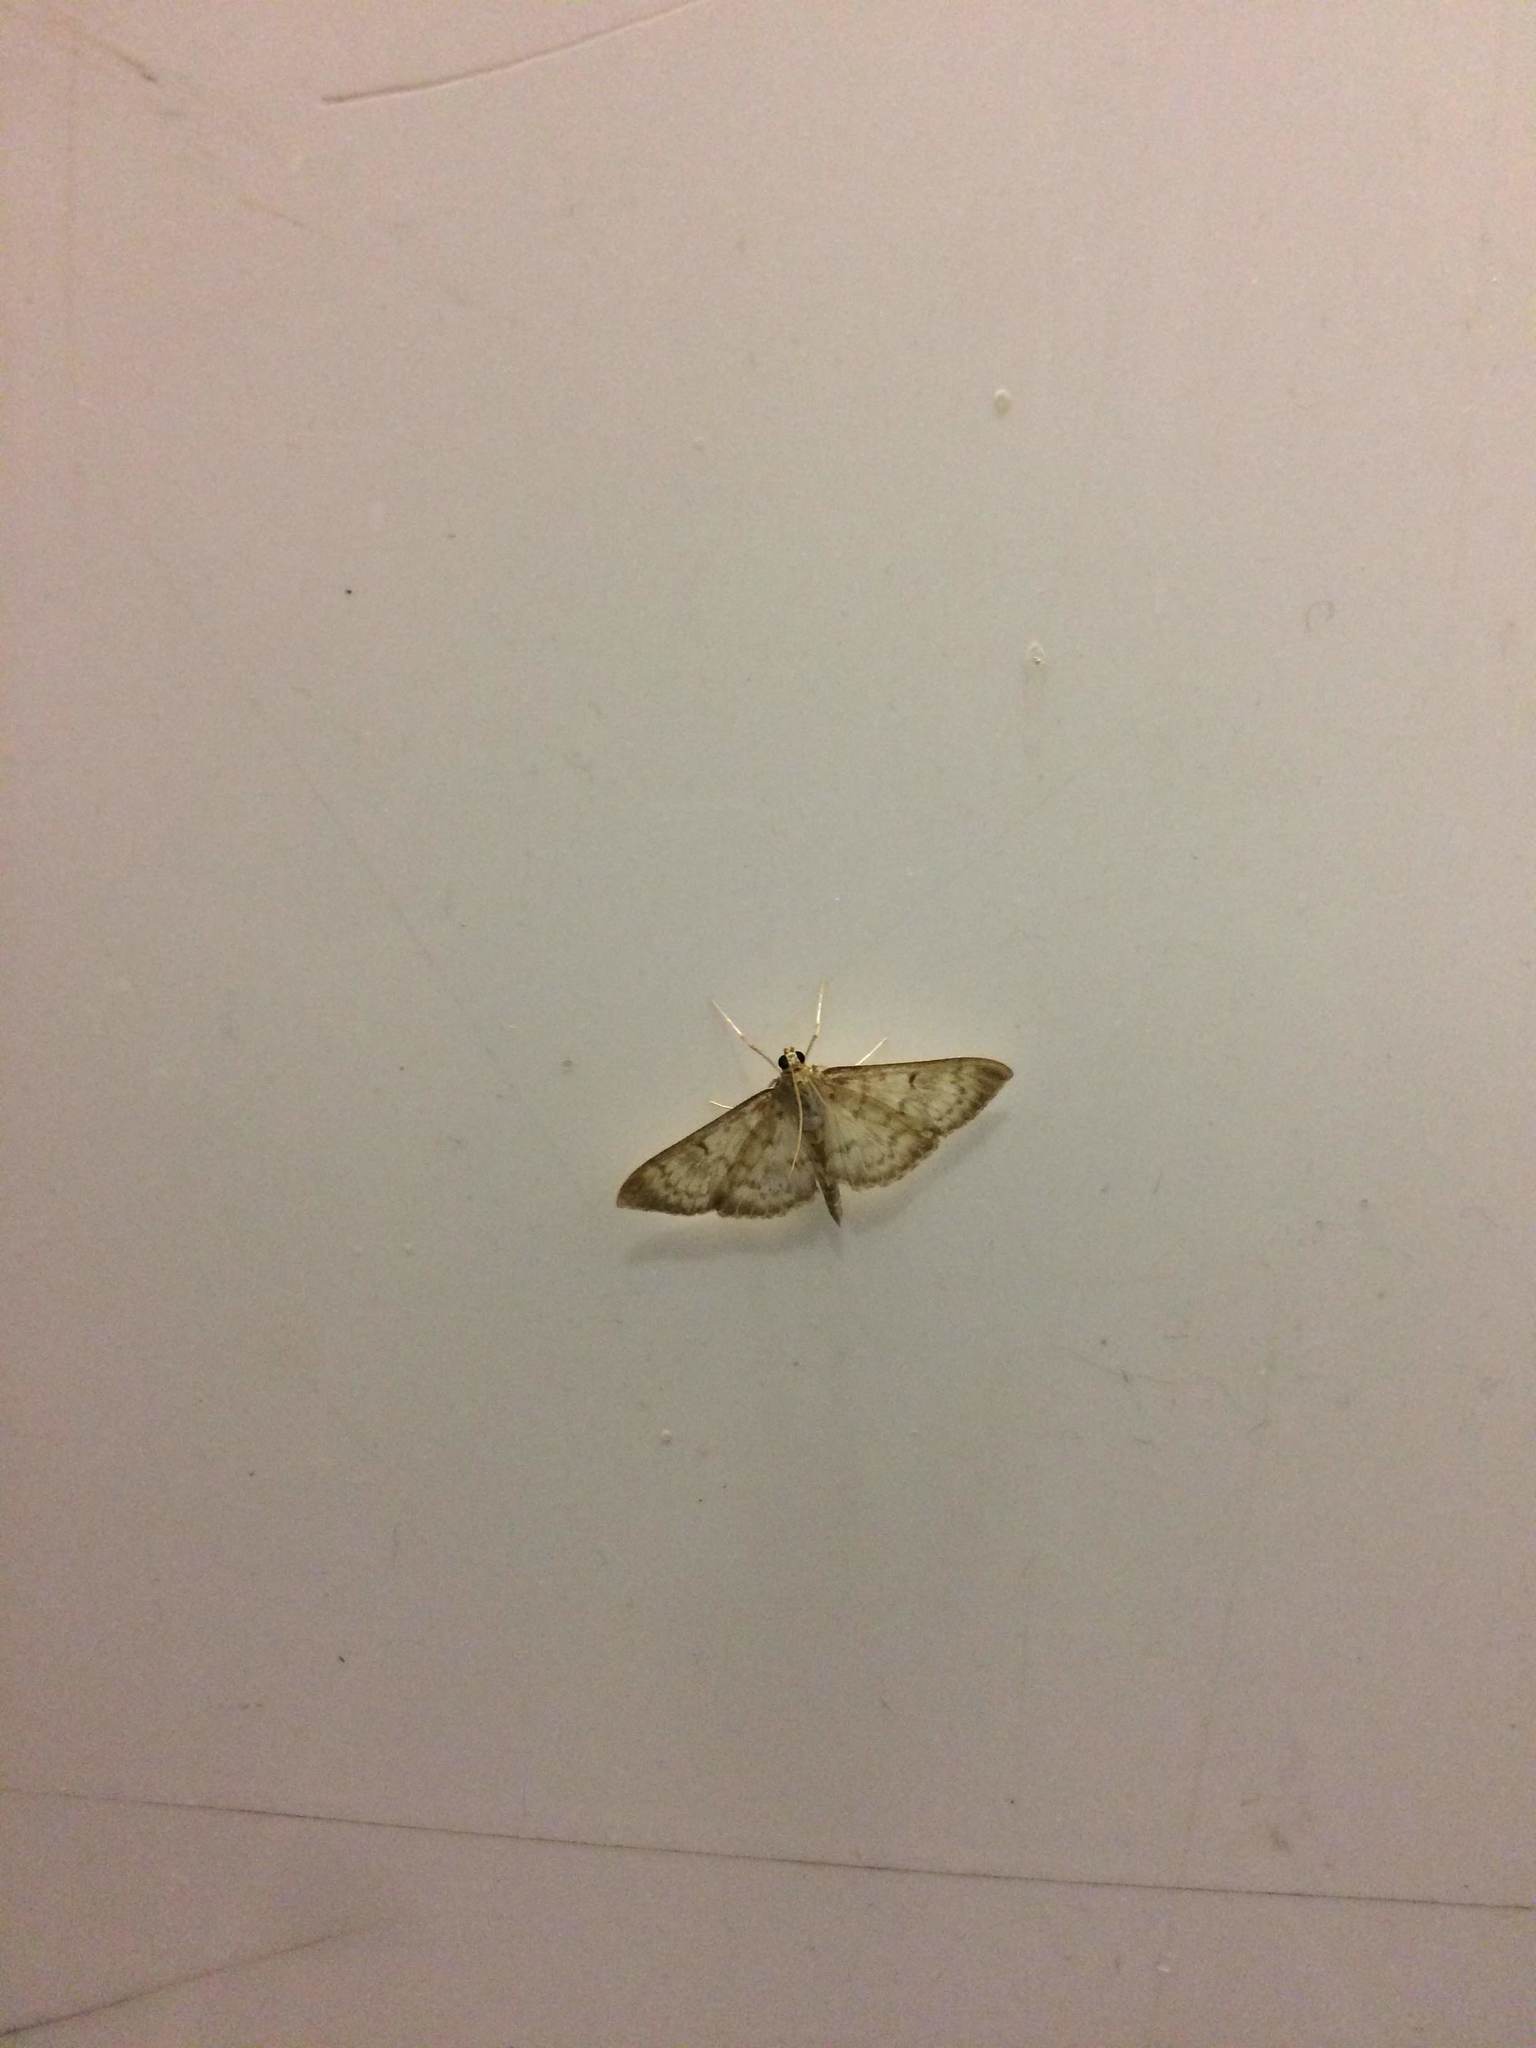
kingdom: Animalia
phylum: Arthropoda
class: Insecta
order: Lepidoptera
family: Crambidae
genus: Patania
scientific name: Patania ruralis
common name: Mother of pearl
